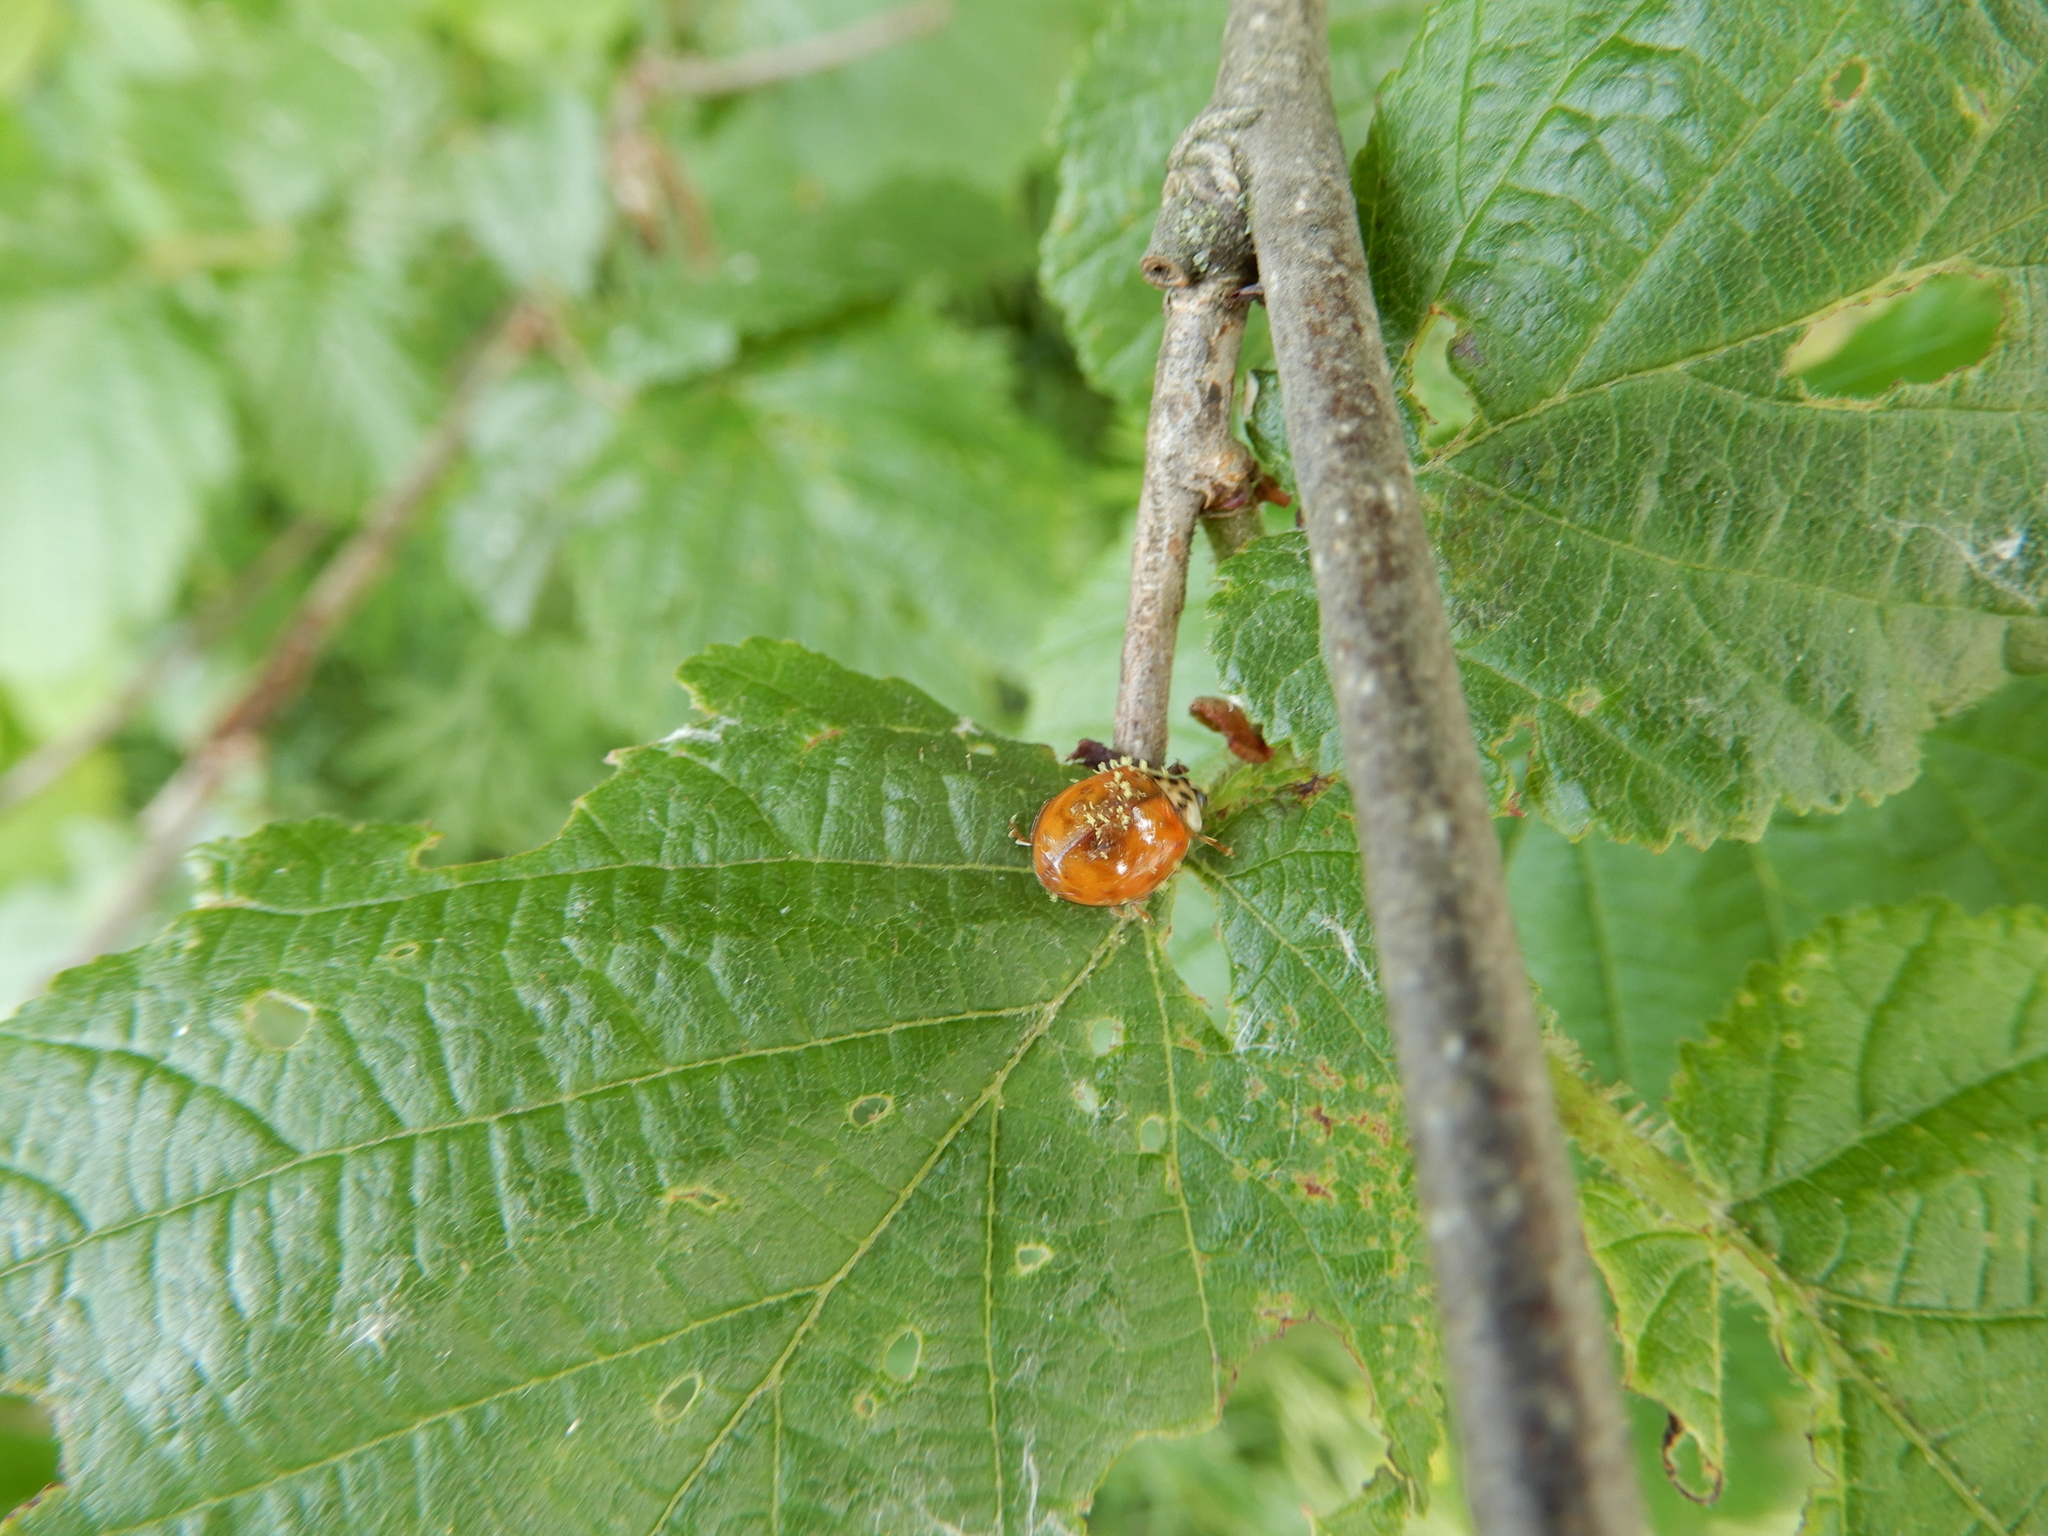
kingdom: Animalia
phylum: Arthropoda
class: Insecta
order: Coleoptera
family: Coccinellidae
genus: Harmonia
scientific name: Harmonia axyridis
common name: Harlequin ladybird
